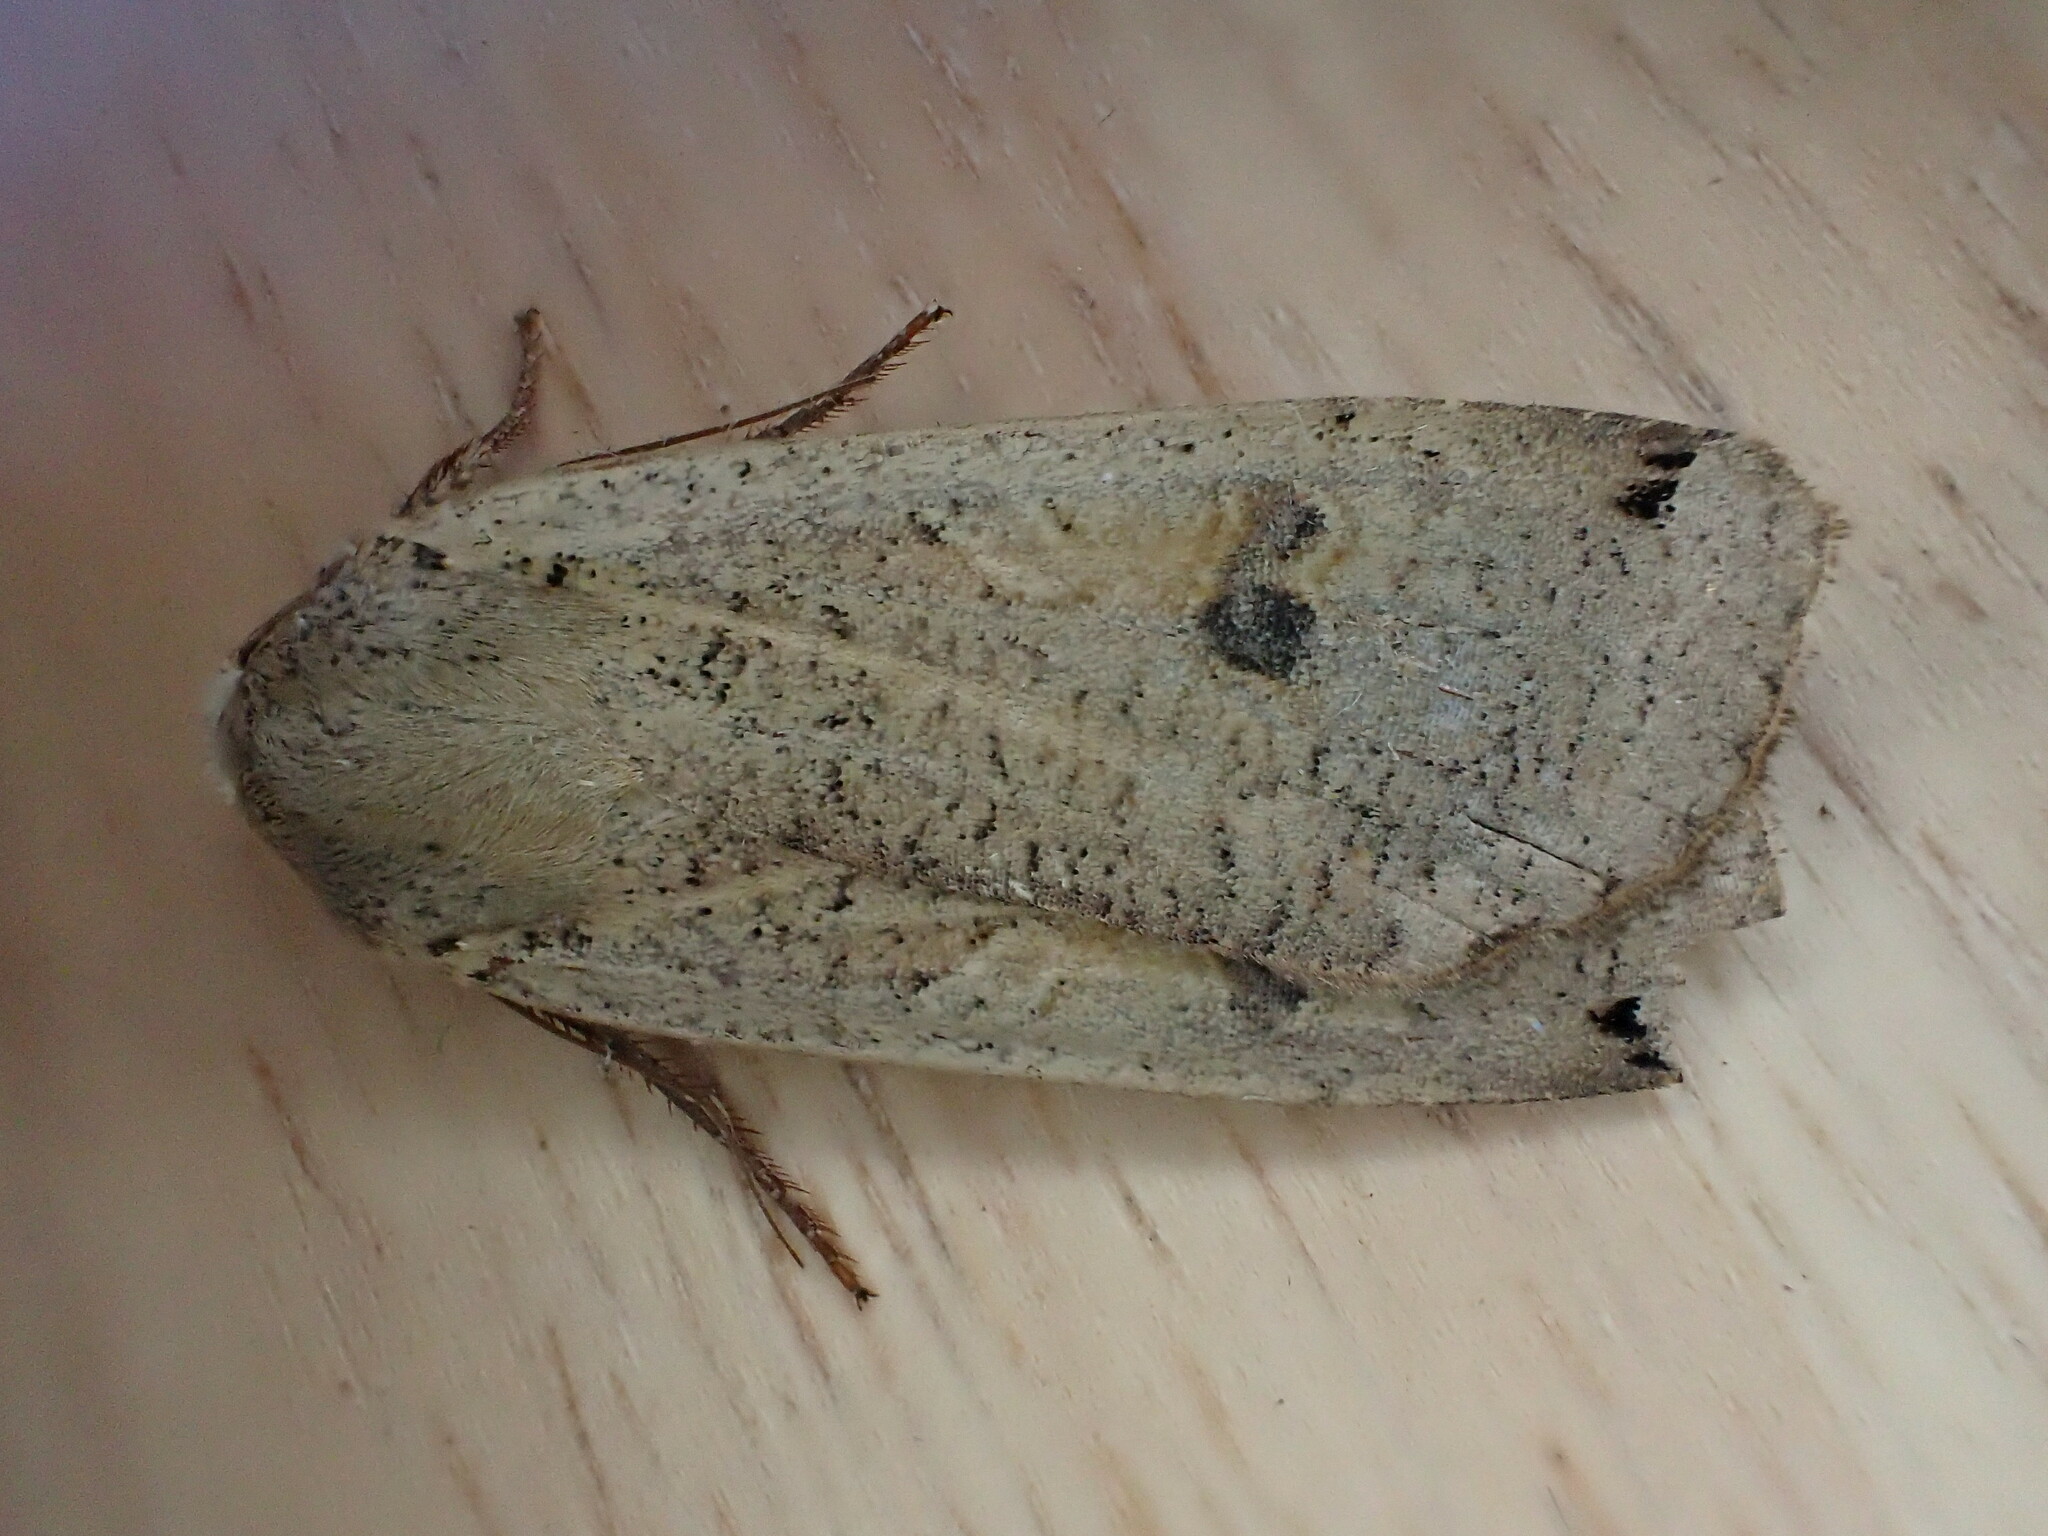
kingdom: Animalia
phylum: Arthropoda
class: Insecta
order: Lepidoptera
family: Noctuidae
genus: Noctua
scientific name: Noctua pronuba
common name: Large yellow underwing
